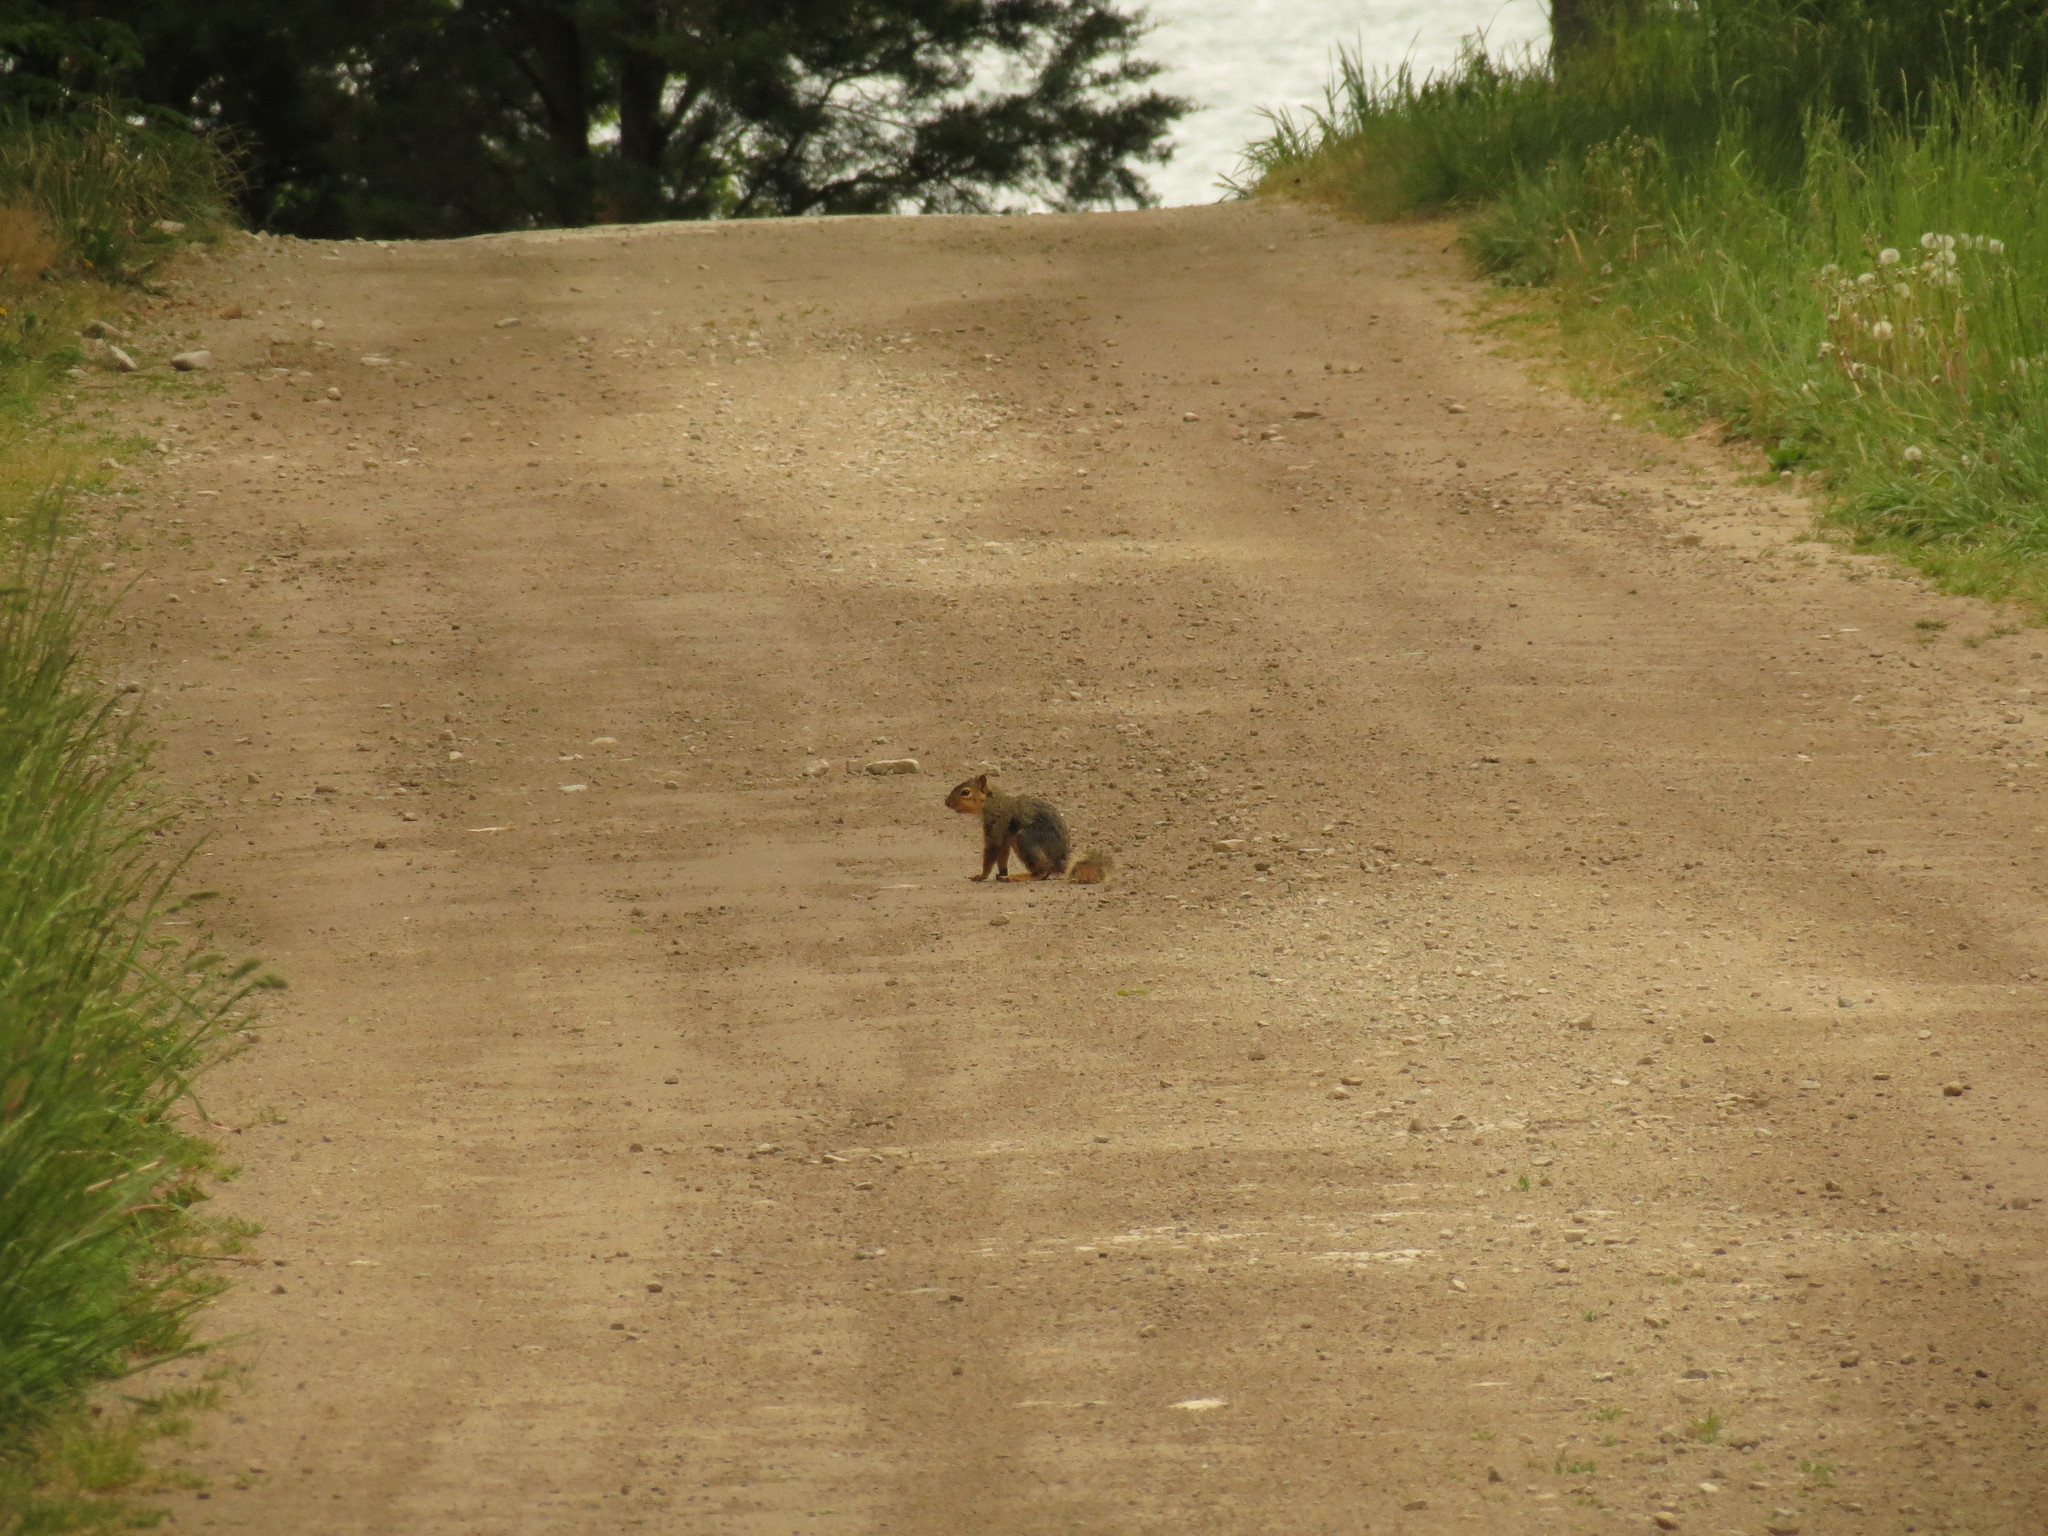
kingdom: Animalia
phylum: Chordata
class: Mammalia
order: Rodentia
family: Sciuridae
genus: Sciurus
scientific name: Sciurus niger
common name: Fox squirrel
